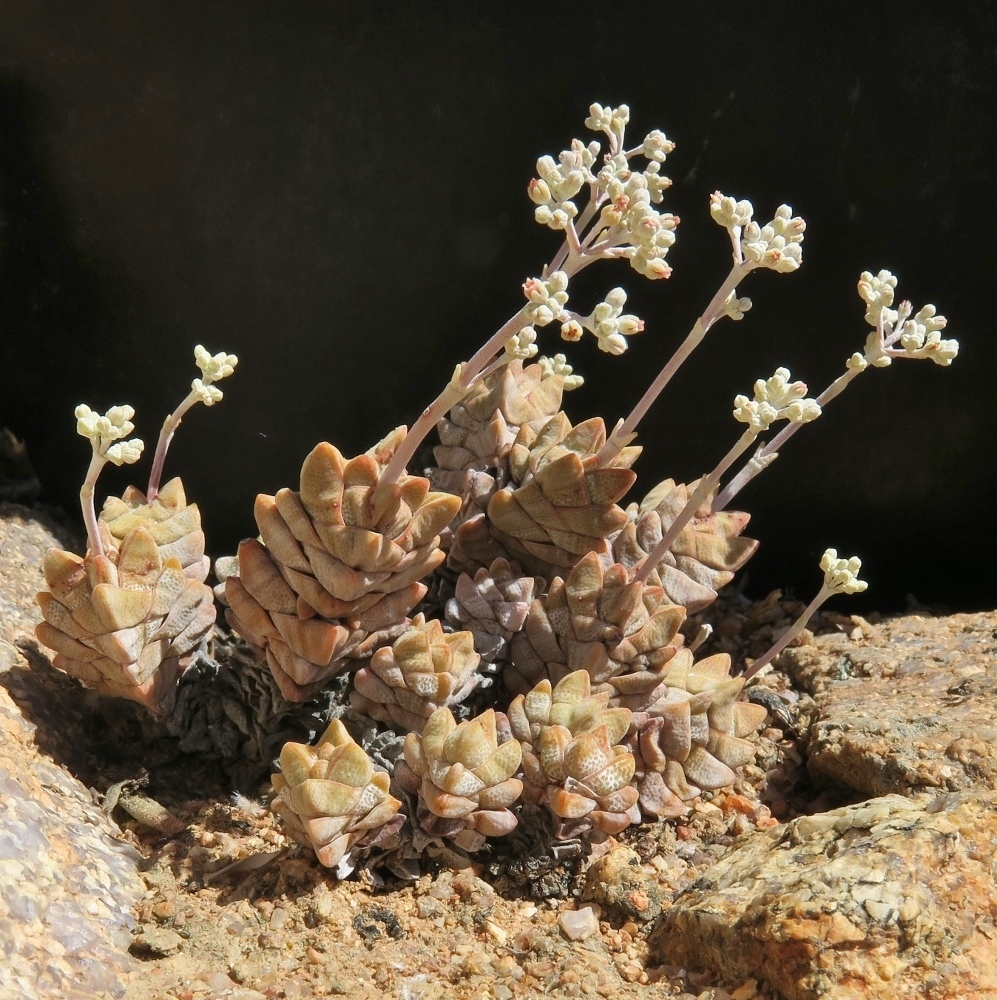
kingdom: Plantae
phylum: Tracheophyta
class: Magnoliopsida
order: Saxifragales
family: Crassulaceae
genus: Crassula
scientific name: Crassula deceptor
